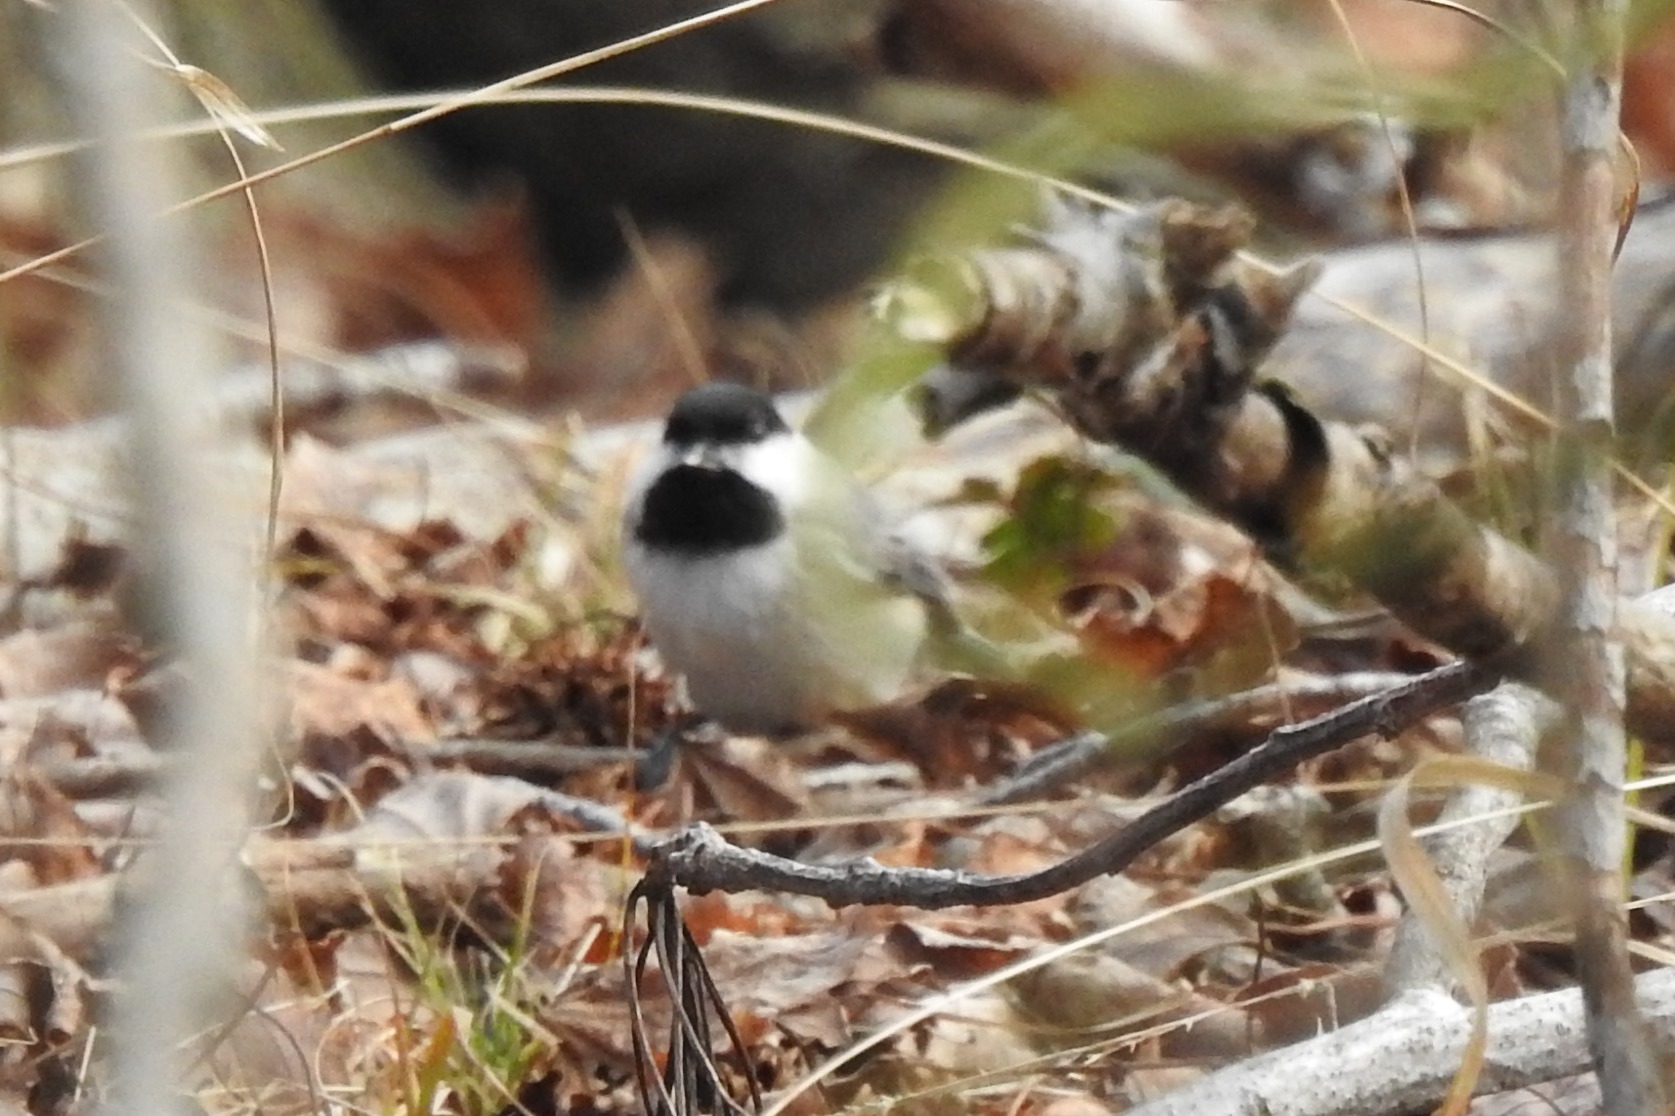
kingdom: Animalia
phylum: Chordata
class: Aves
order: Passeriformes
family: Paridae
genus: Poecile
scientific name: Poecile carolinensis
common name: Carolina chickadee
